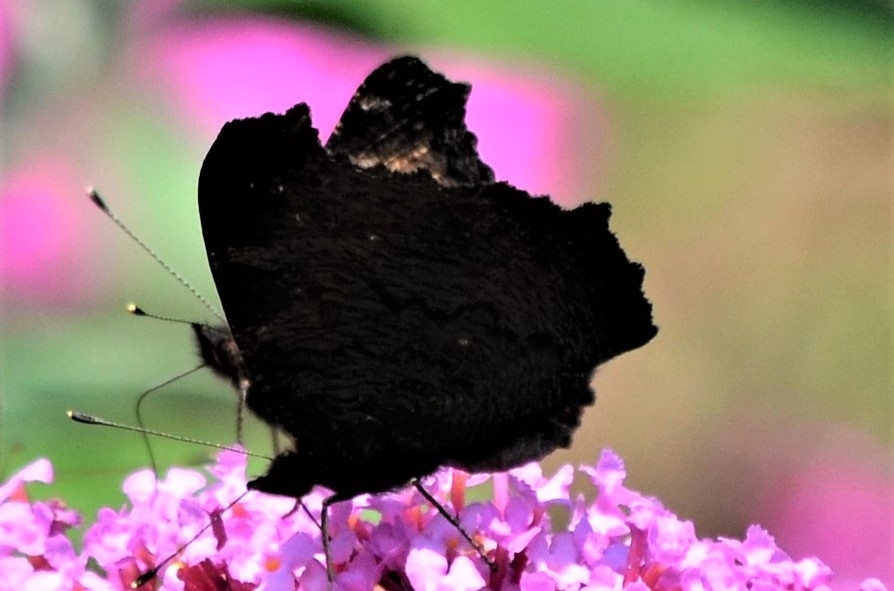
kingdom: Animalia
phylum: Arthropoda
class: Insecta
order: Lepidoptera
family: Nymphalidae
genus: Aglais
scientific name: Aglais io
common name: Peacock
